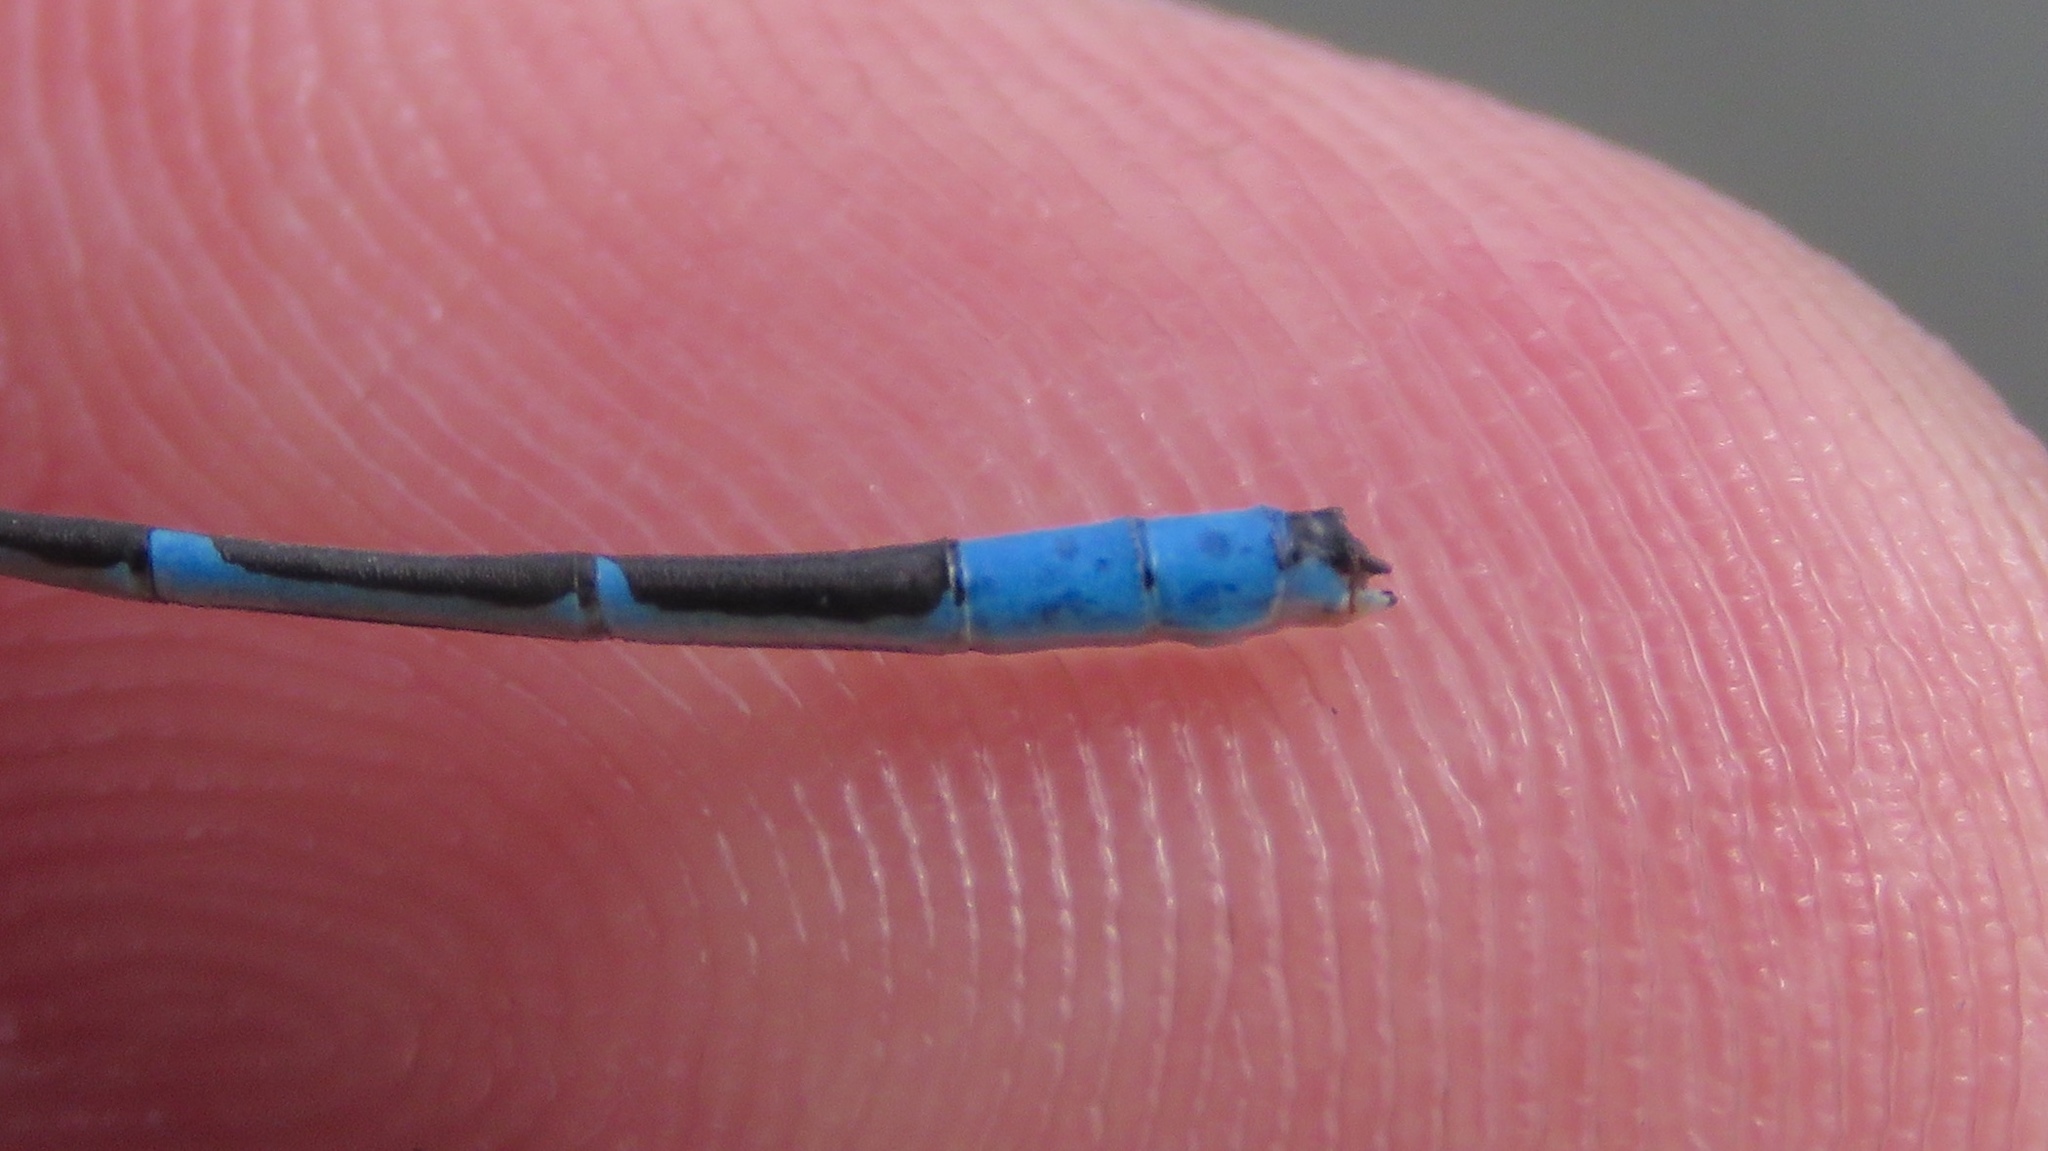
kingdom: Animalia
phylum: Arthropoda
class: Insecta
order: Odonata
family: Coenagrionidae
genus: Enallagma
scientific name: Enallagma hageni
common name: Hagen's bluet
